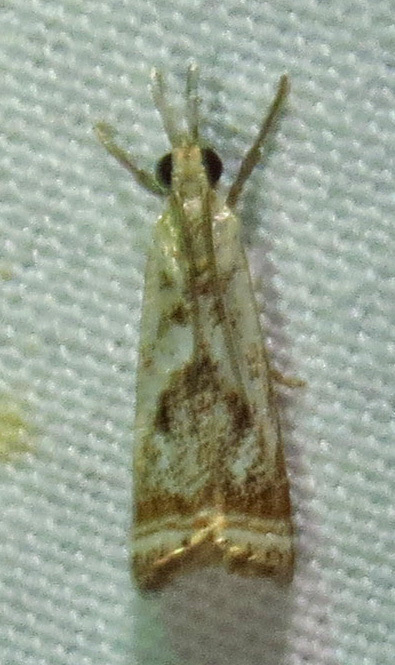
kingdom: Animalia
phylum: Arthropoda
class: Insecta
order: Lepidoptera
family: Crambidae
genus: Microcrambus
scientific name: Microcrambus elegans
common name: Elegant grass-veneer
